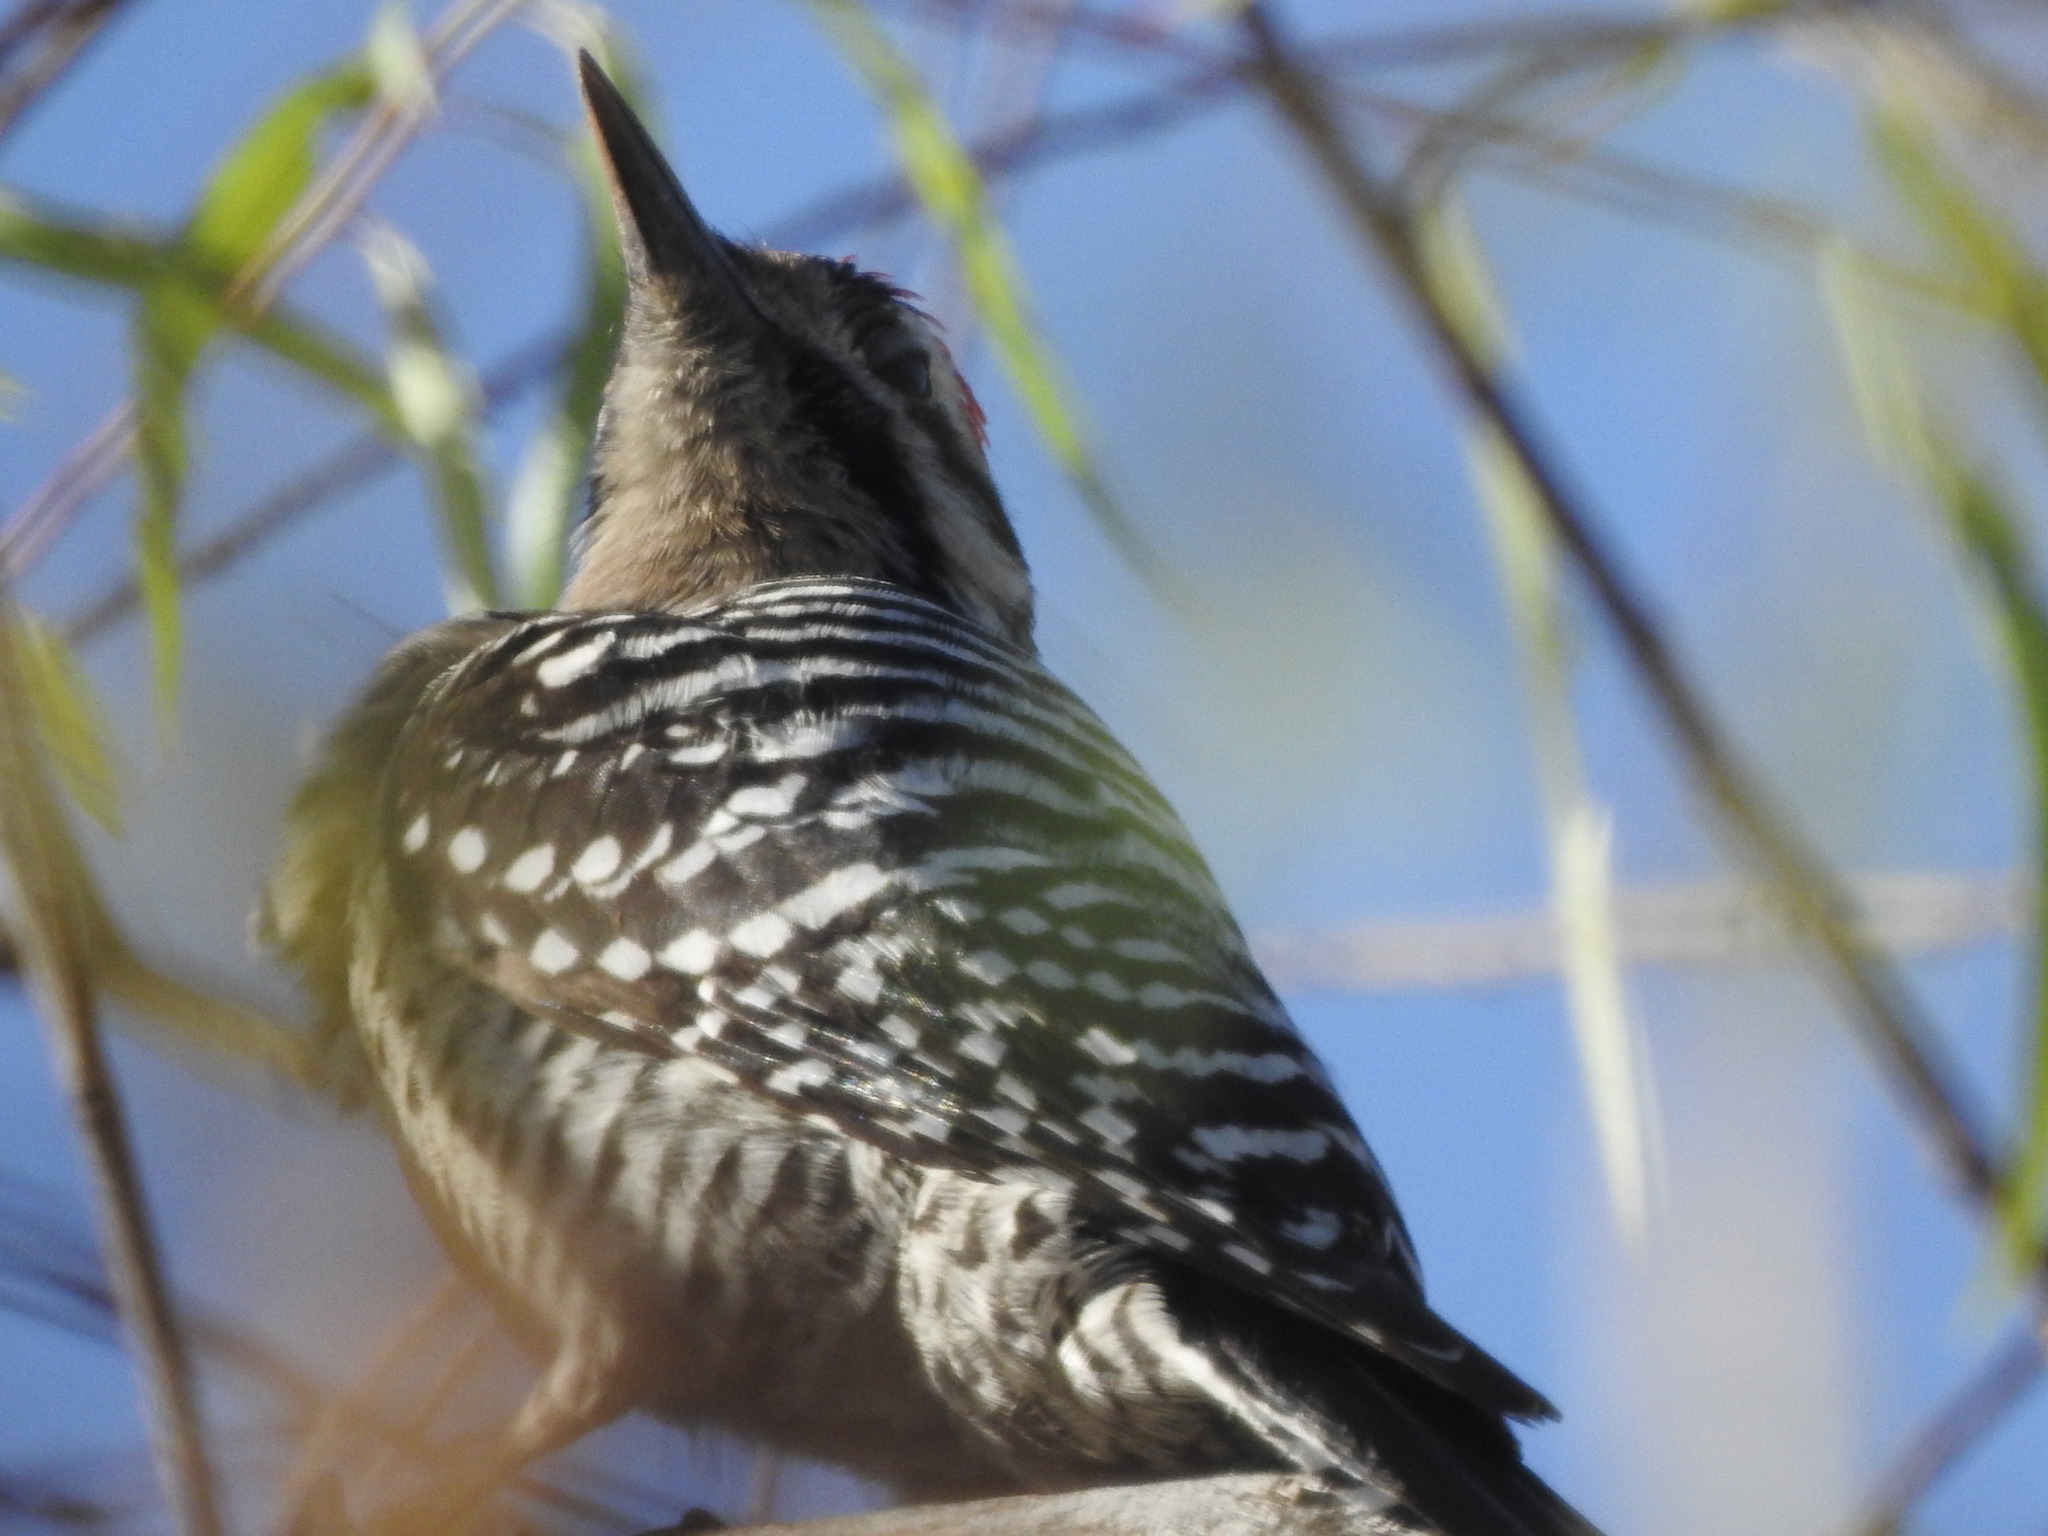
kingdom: Animalia
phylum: Chordata
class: Aves
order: Piciformes
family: Picidae
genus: Dryobates
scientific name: Dryobates scalaris
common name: Ladder-backed woodpecker
